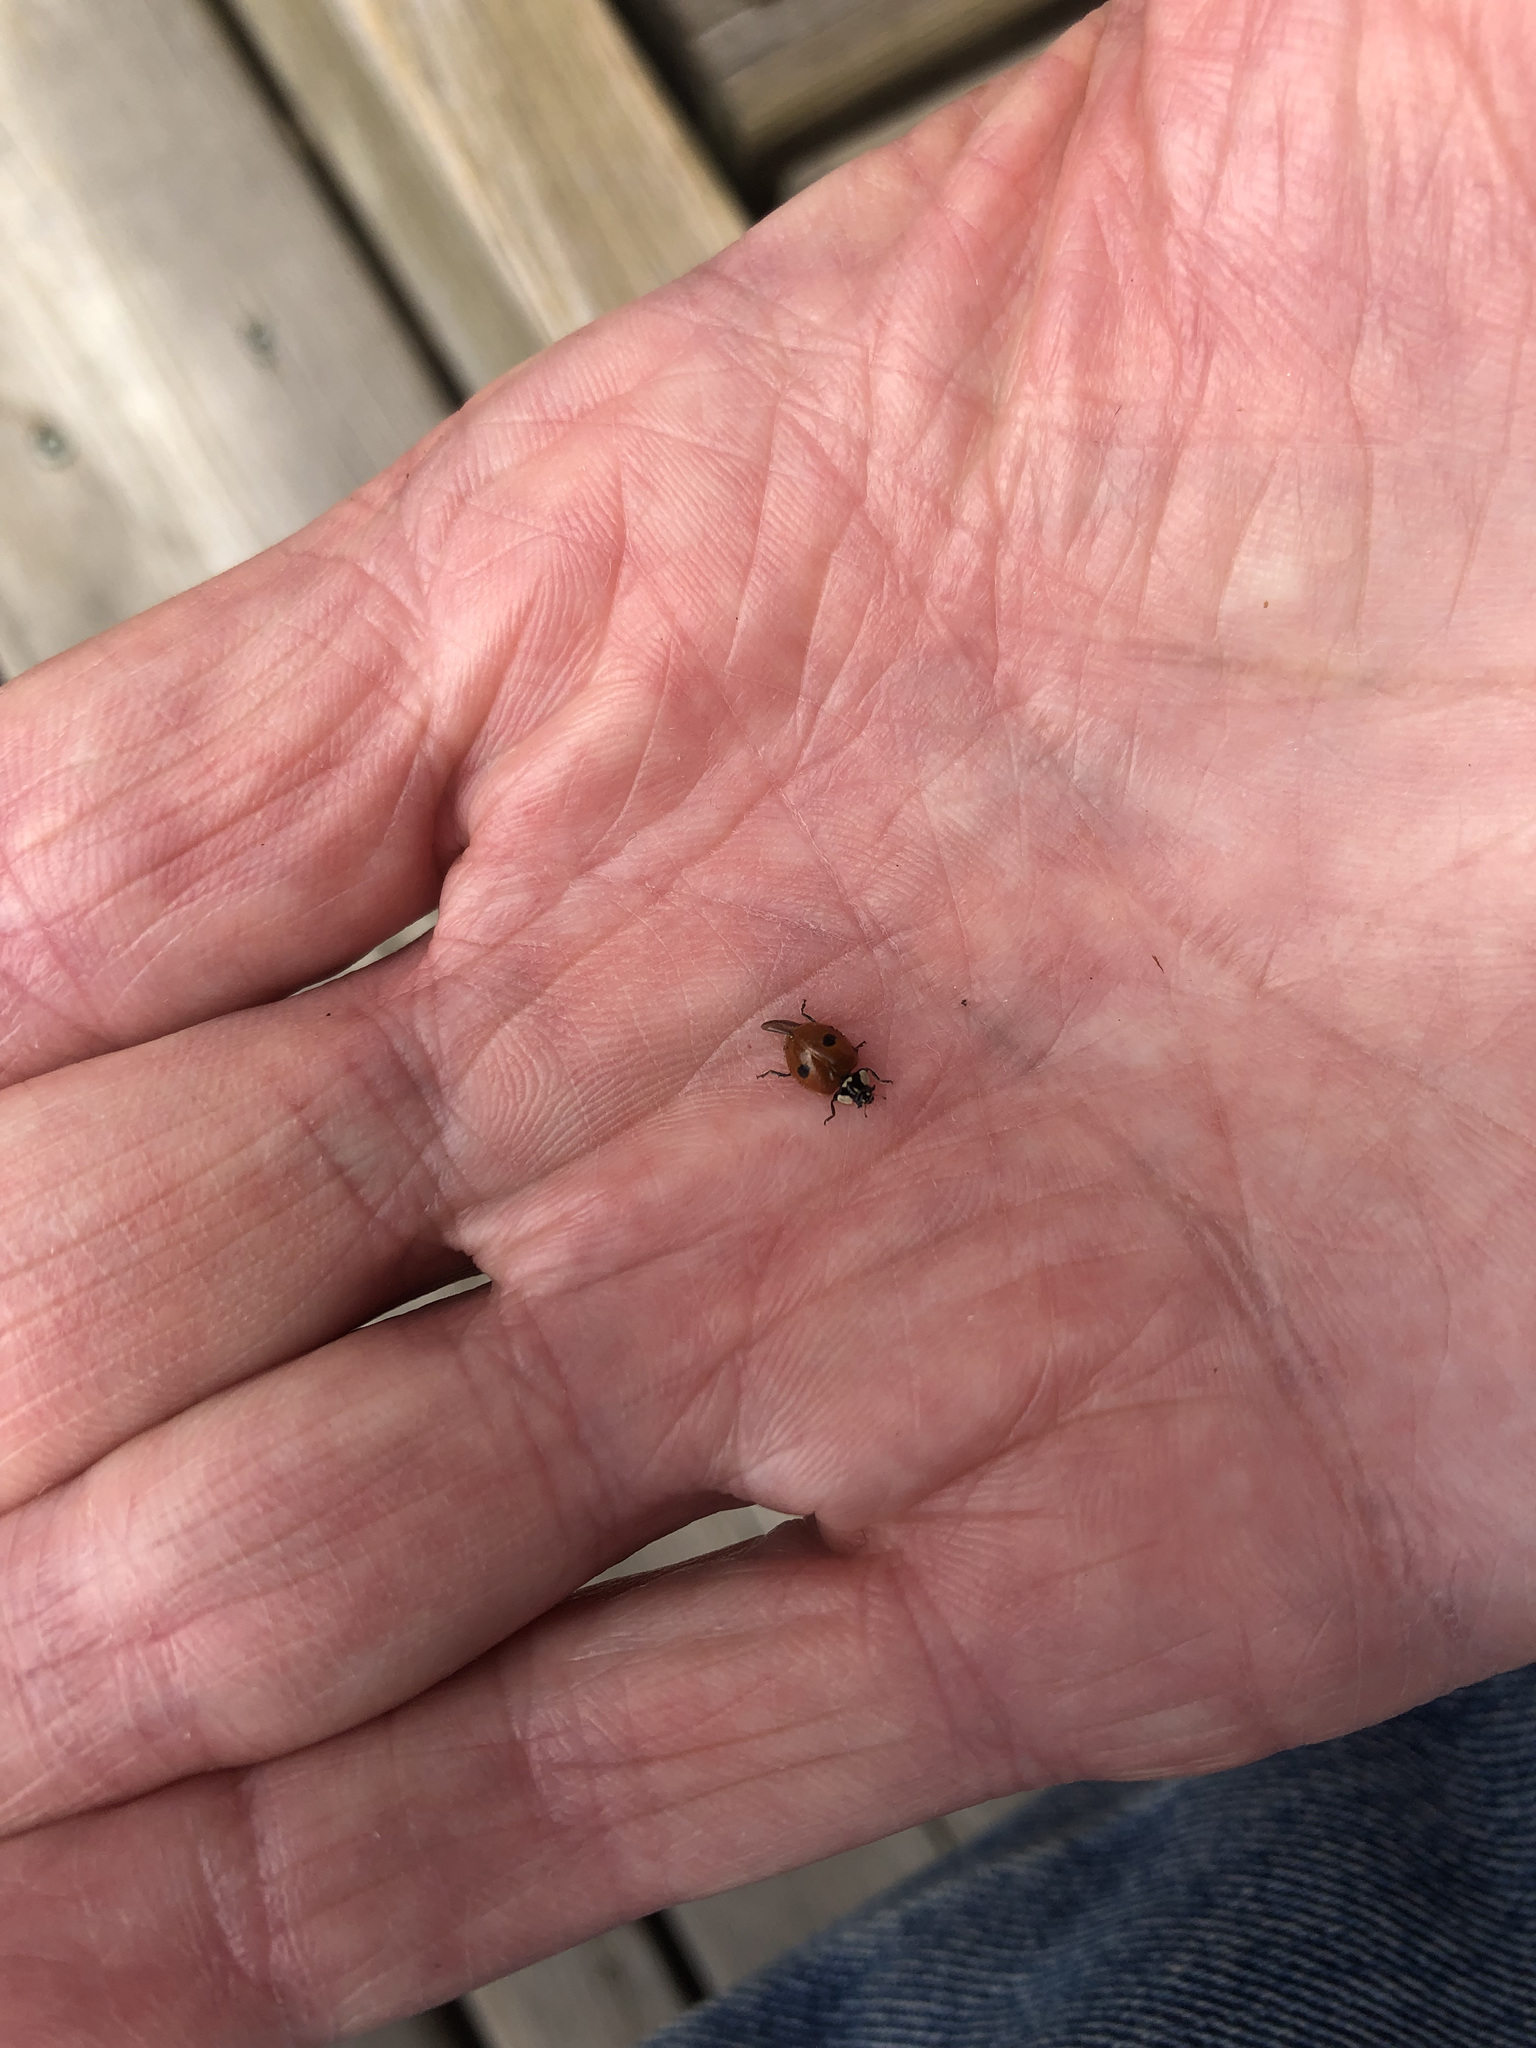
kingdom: Animalia
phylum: Arthropoda
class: Insecta
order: Coleoptera
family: Coccinellidae
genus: Adalia
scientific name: Adalia bipunctata
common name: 2-spot ladybird
